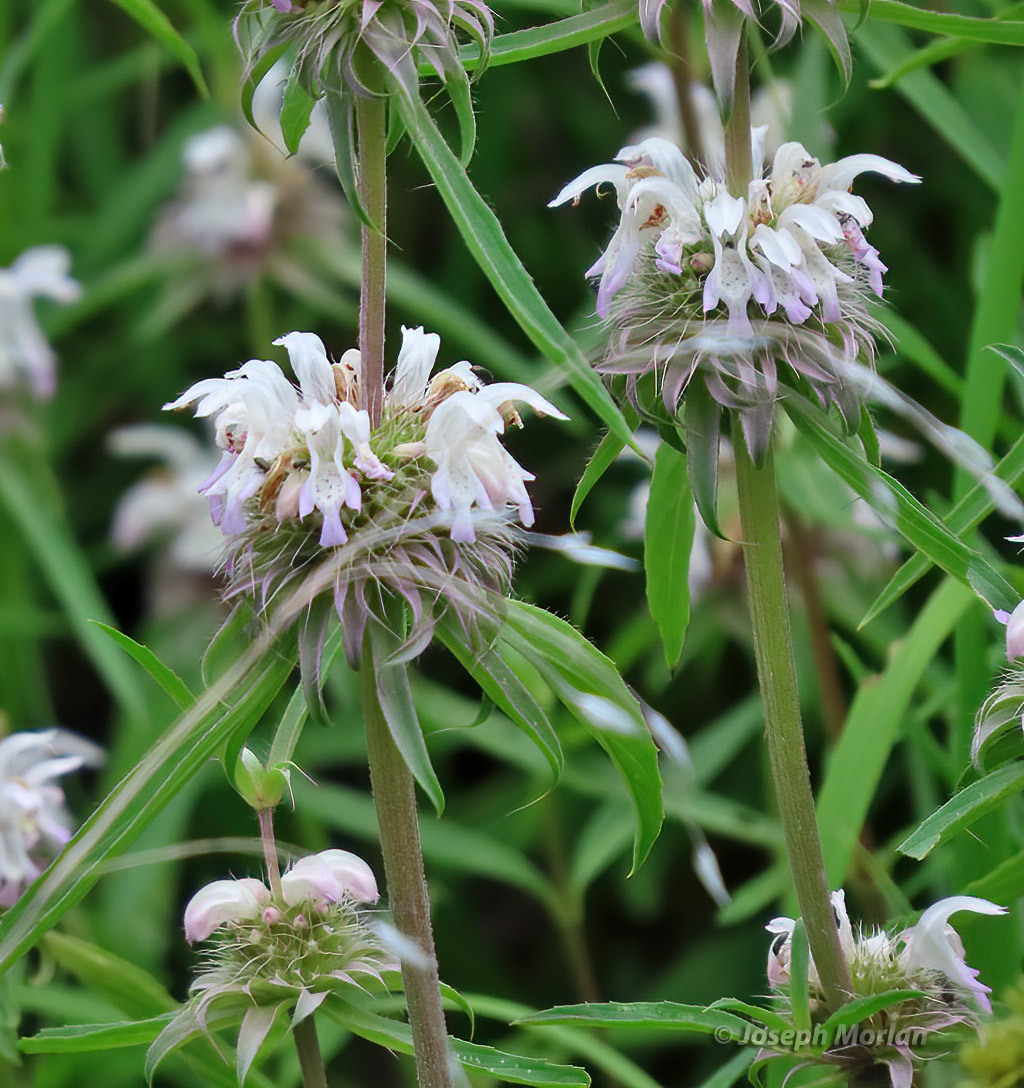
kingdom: Plantae
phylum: Tracheophyta
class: Magnoliopsida
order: Lamiales
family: Lamiaceae
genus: Monarda
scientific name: Monarda citriodora
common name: Lemon beebalm
